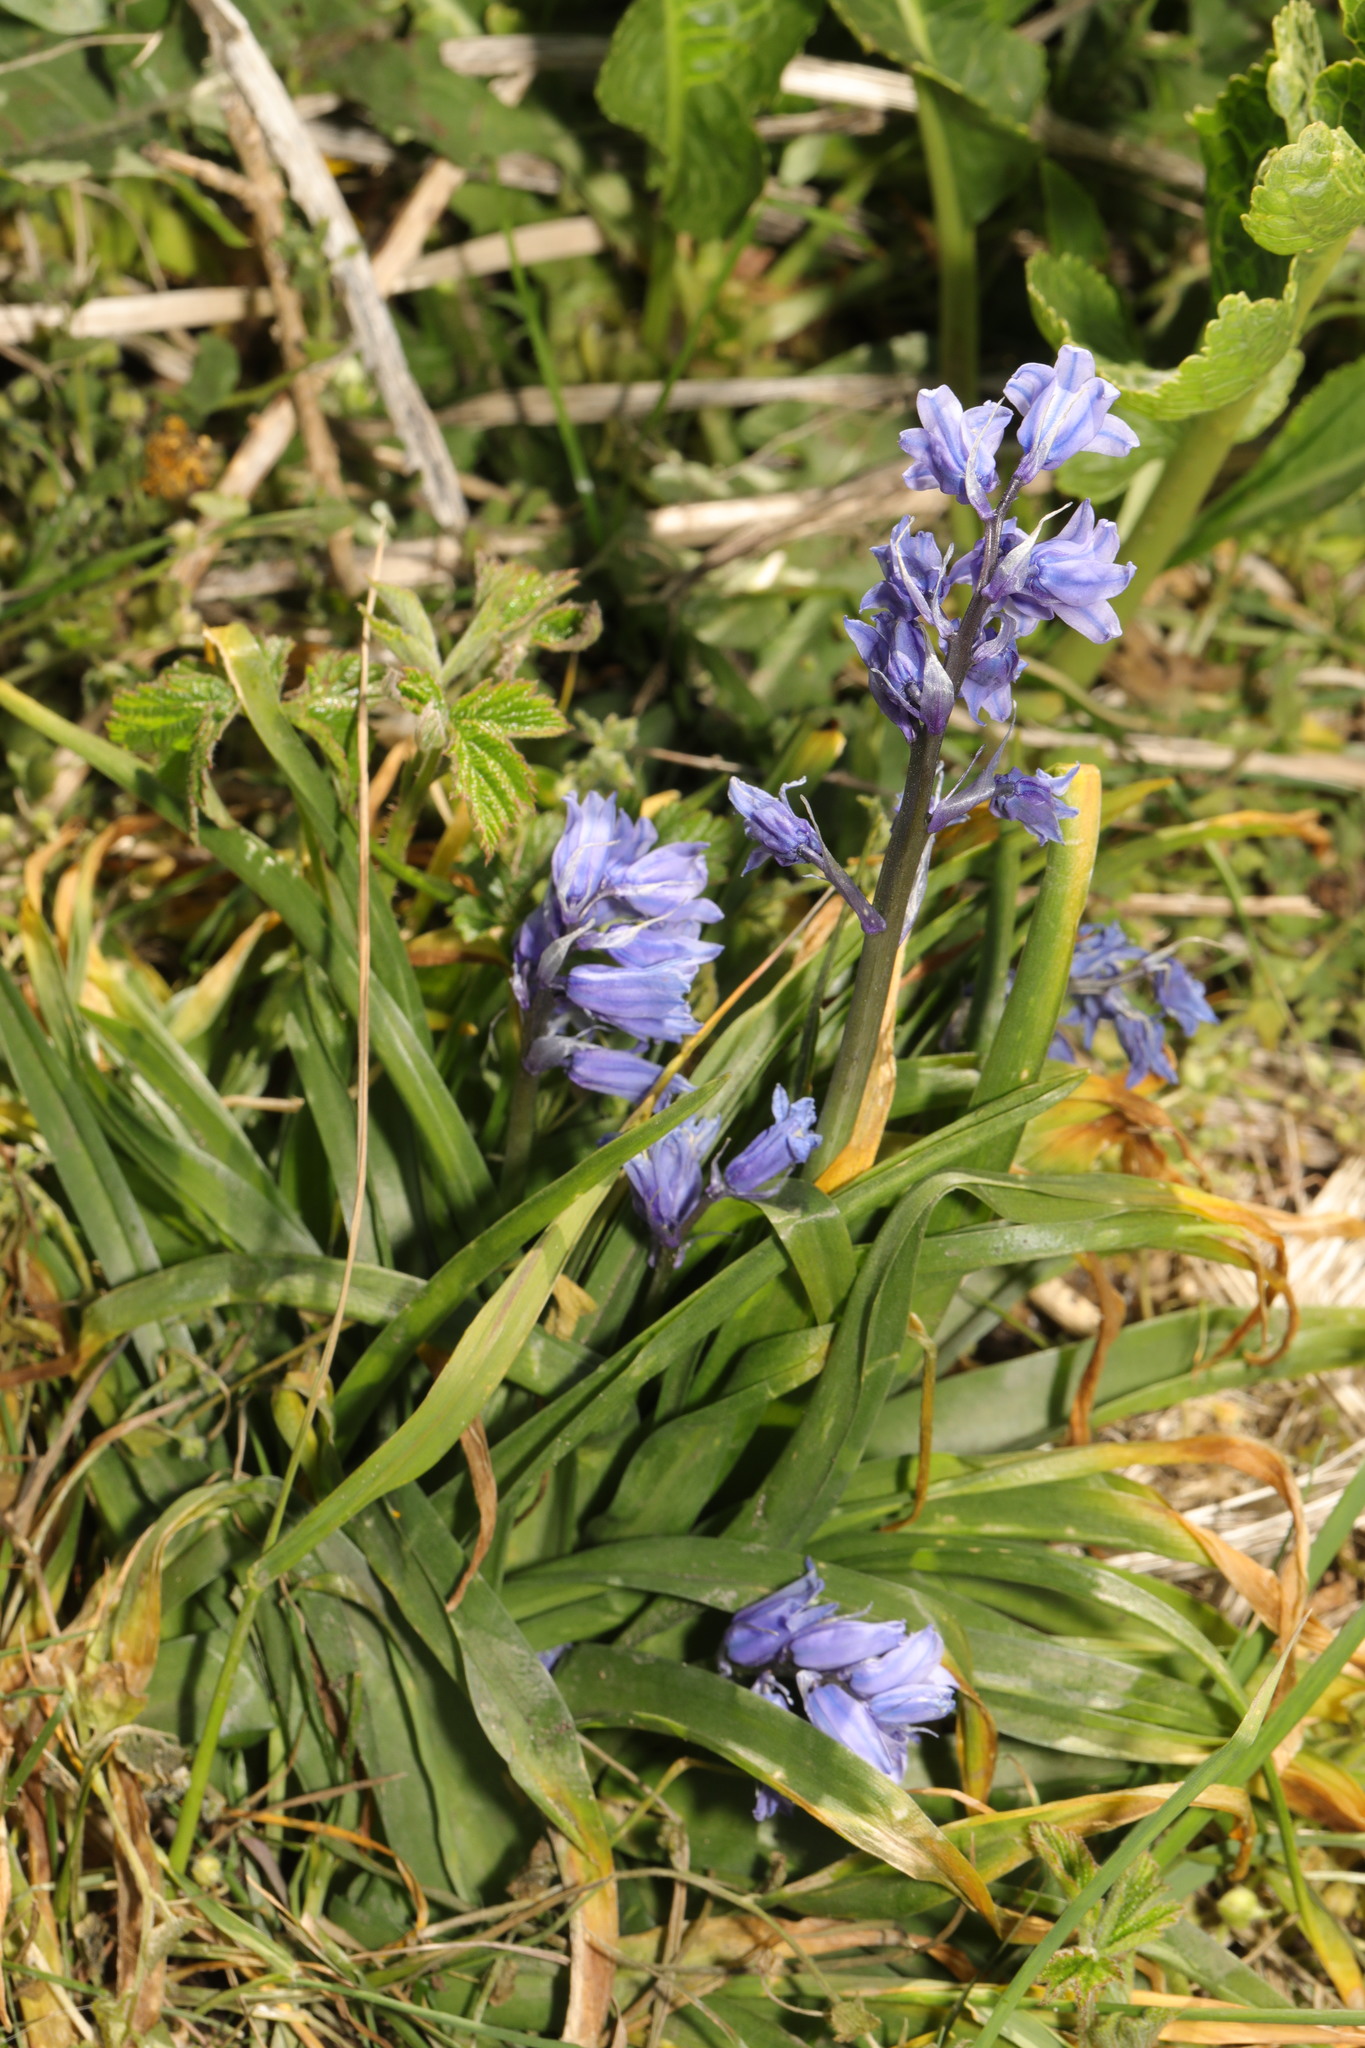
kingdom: Plantae
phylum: Tracheophyta
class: Liliopsida
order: Asparagales
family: Asparagaceae
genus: Hyacinthoides
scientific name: Hyacinthoides hispanica
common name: Spanish bluebell
